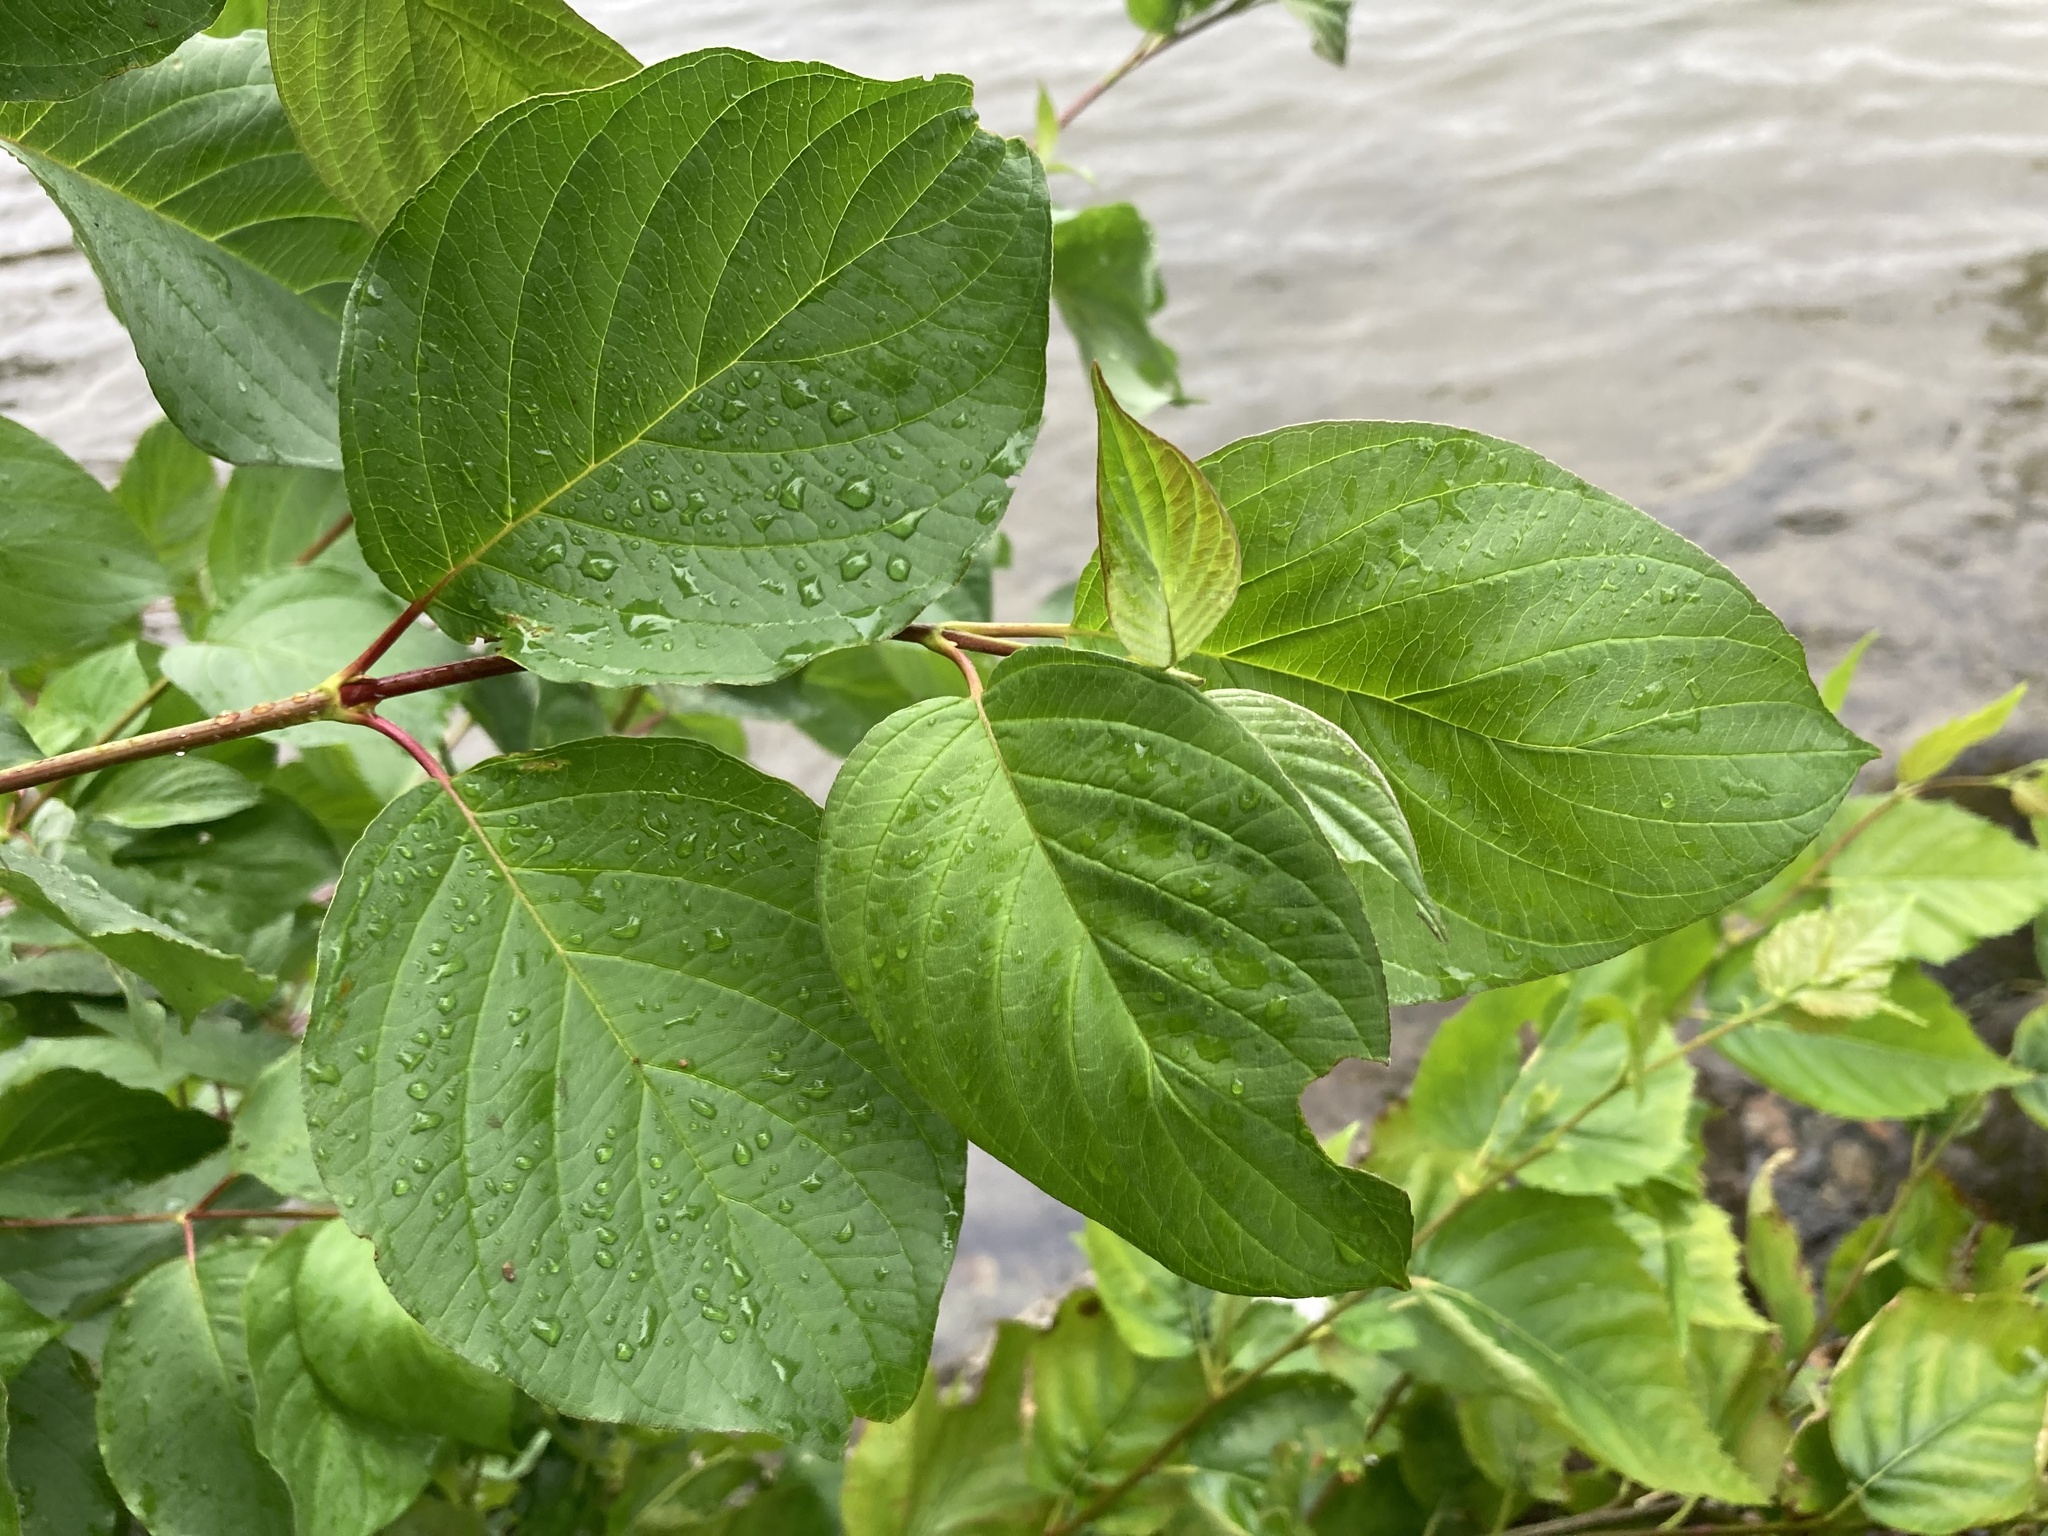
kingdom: Plantae
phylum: Tracheophyta
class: Magnoliopsida
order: Cornales
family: Cornaceae
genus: Cornus
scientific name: Cornus rugosa
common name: Round-leaf dogwood
